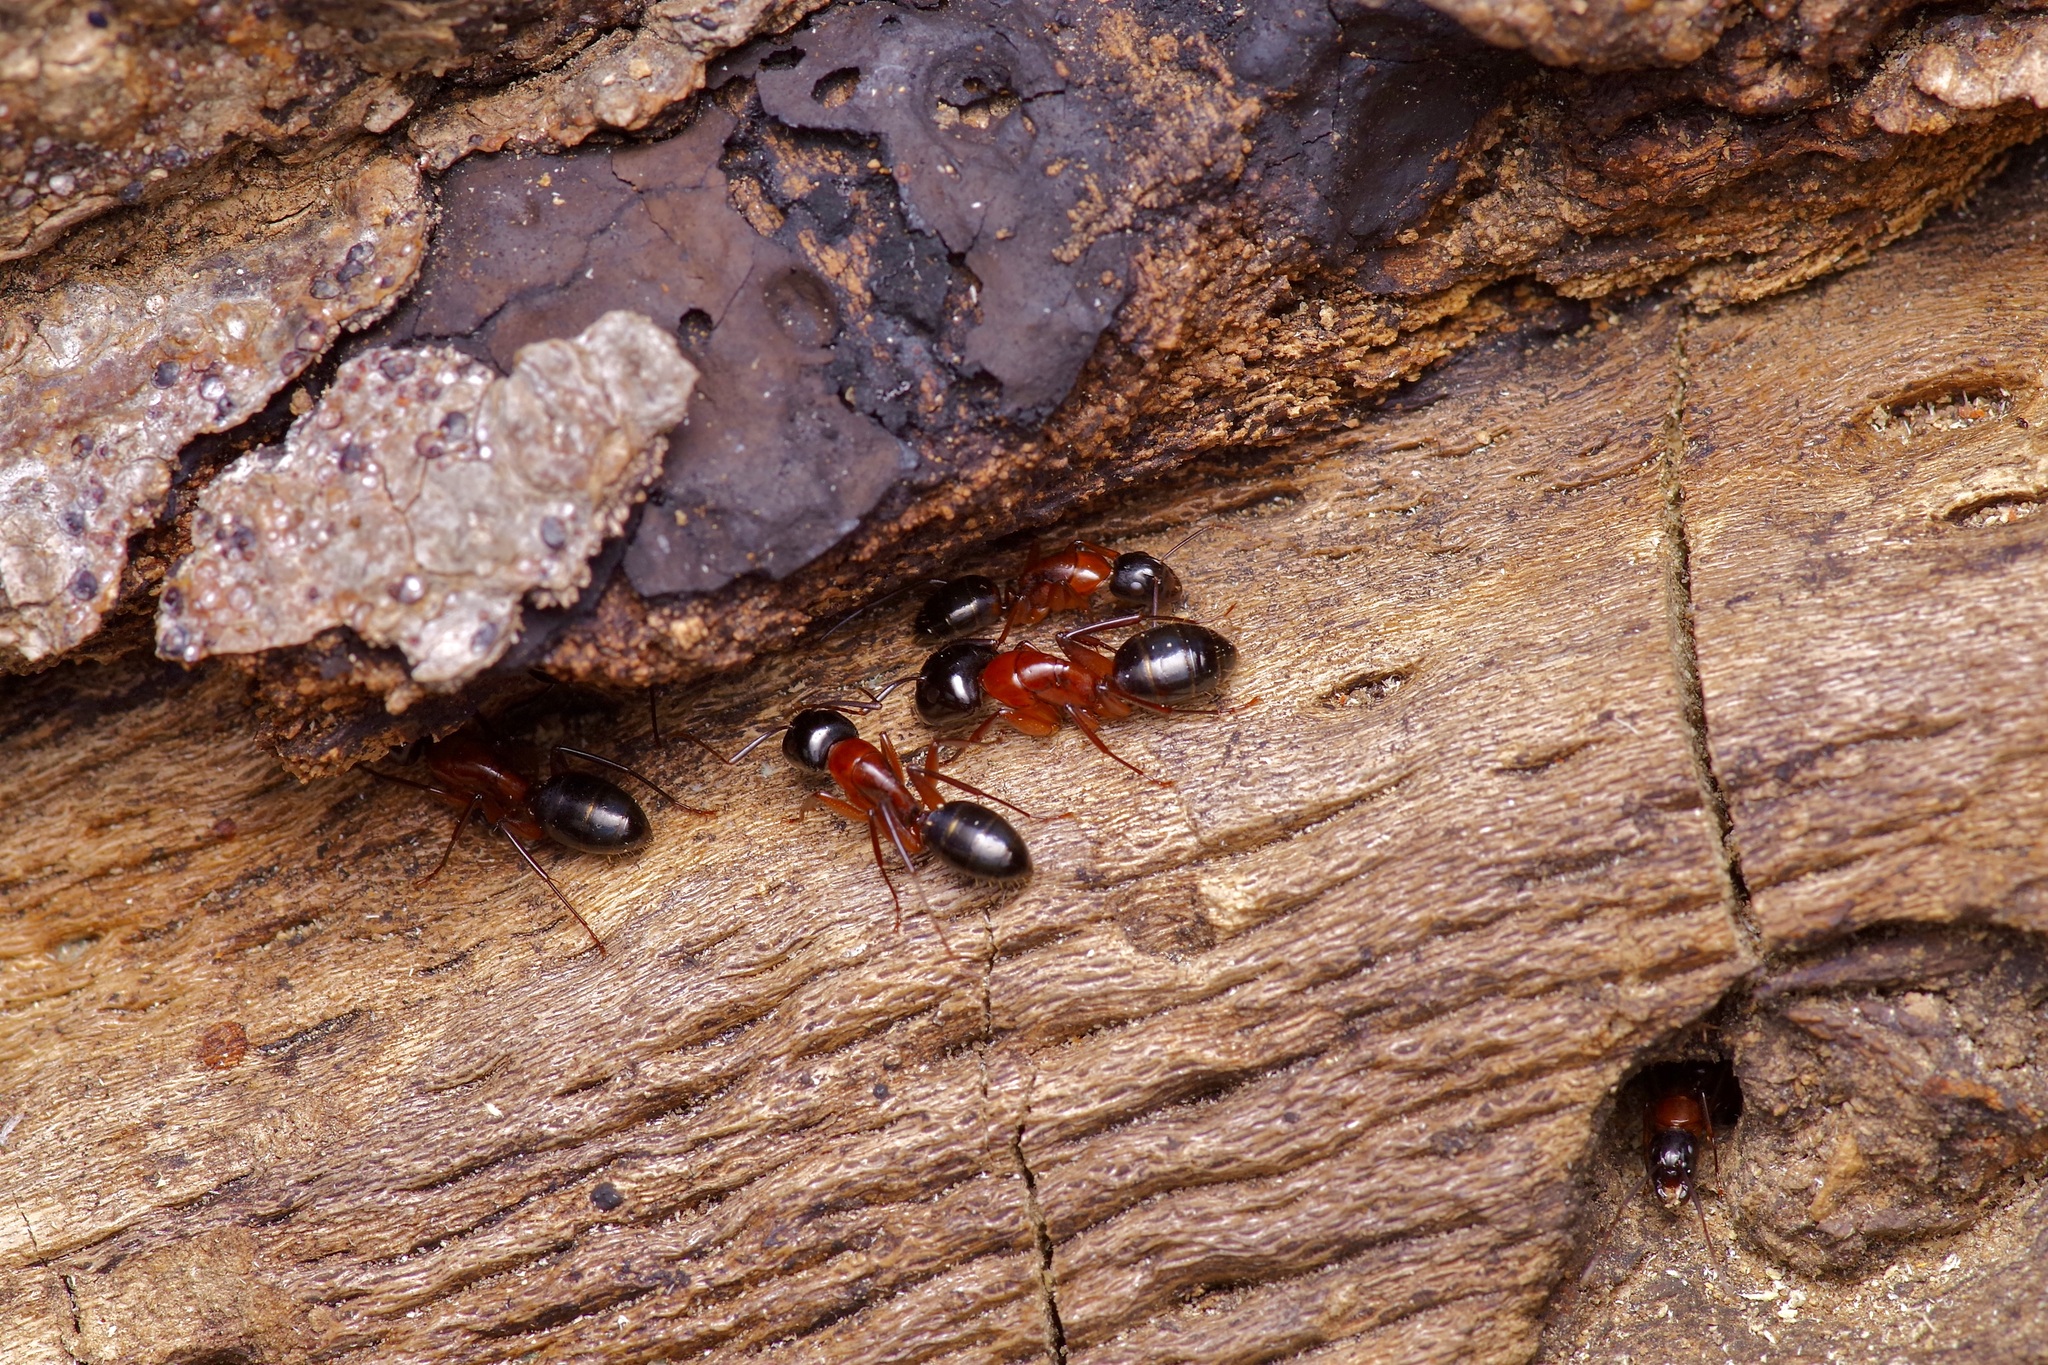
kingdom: Animalia
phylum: Arthropoda
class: Insecta
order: Hymenoptera
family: Formicidae
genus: Camponotus
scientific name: Camponotus texanus
